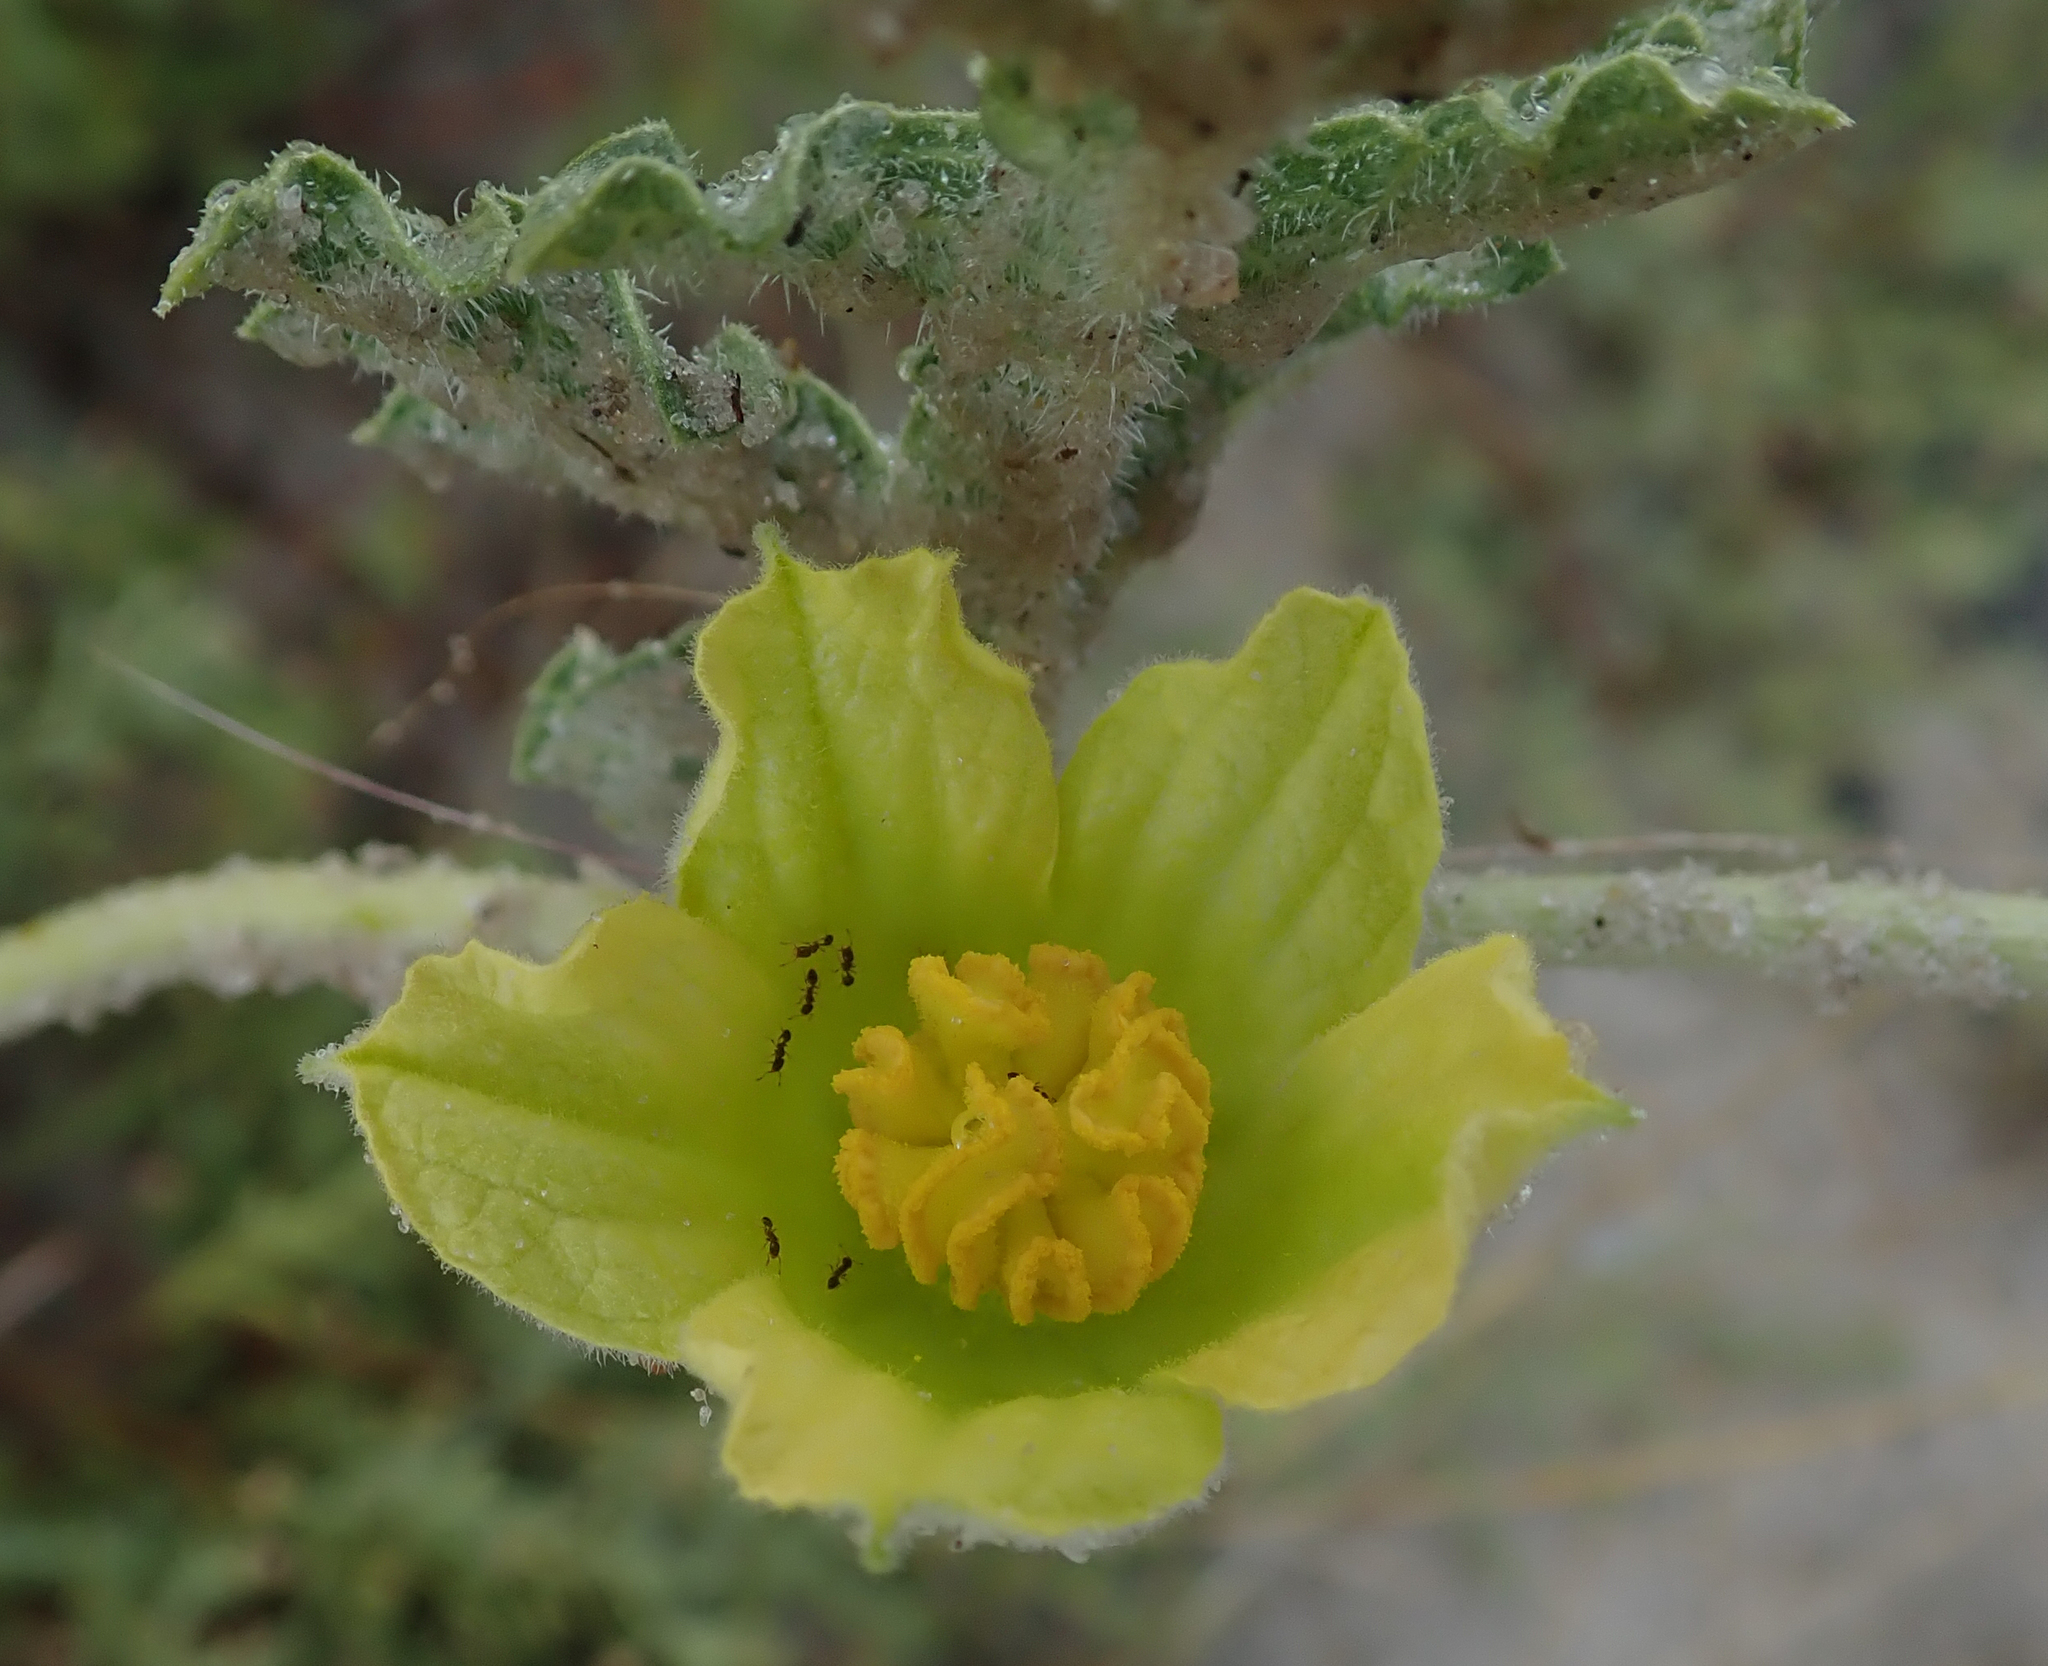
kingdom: Plantae
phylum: Tracheophyta
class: Magnoliopsida
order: Cucurbitales
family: Cucurbitaceae
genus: Citrullus
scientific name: Citrullus naudinianus
